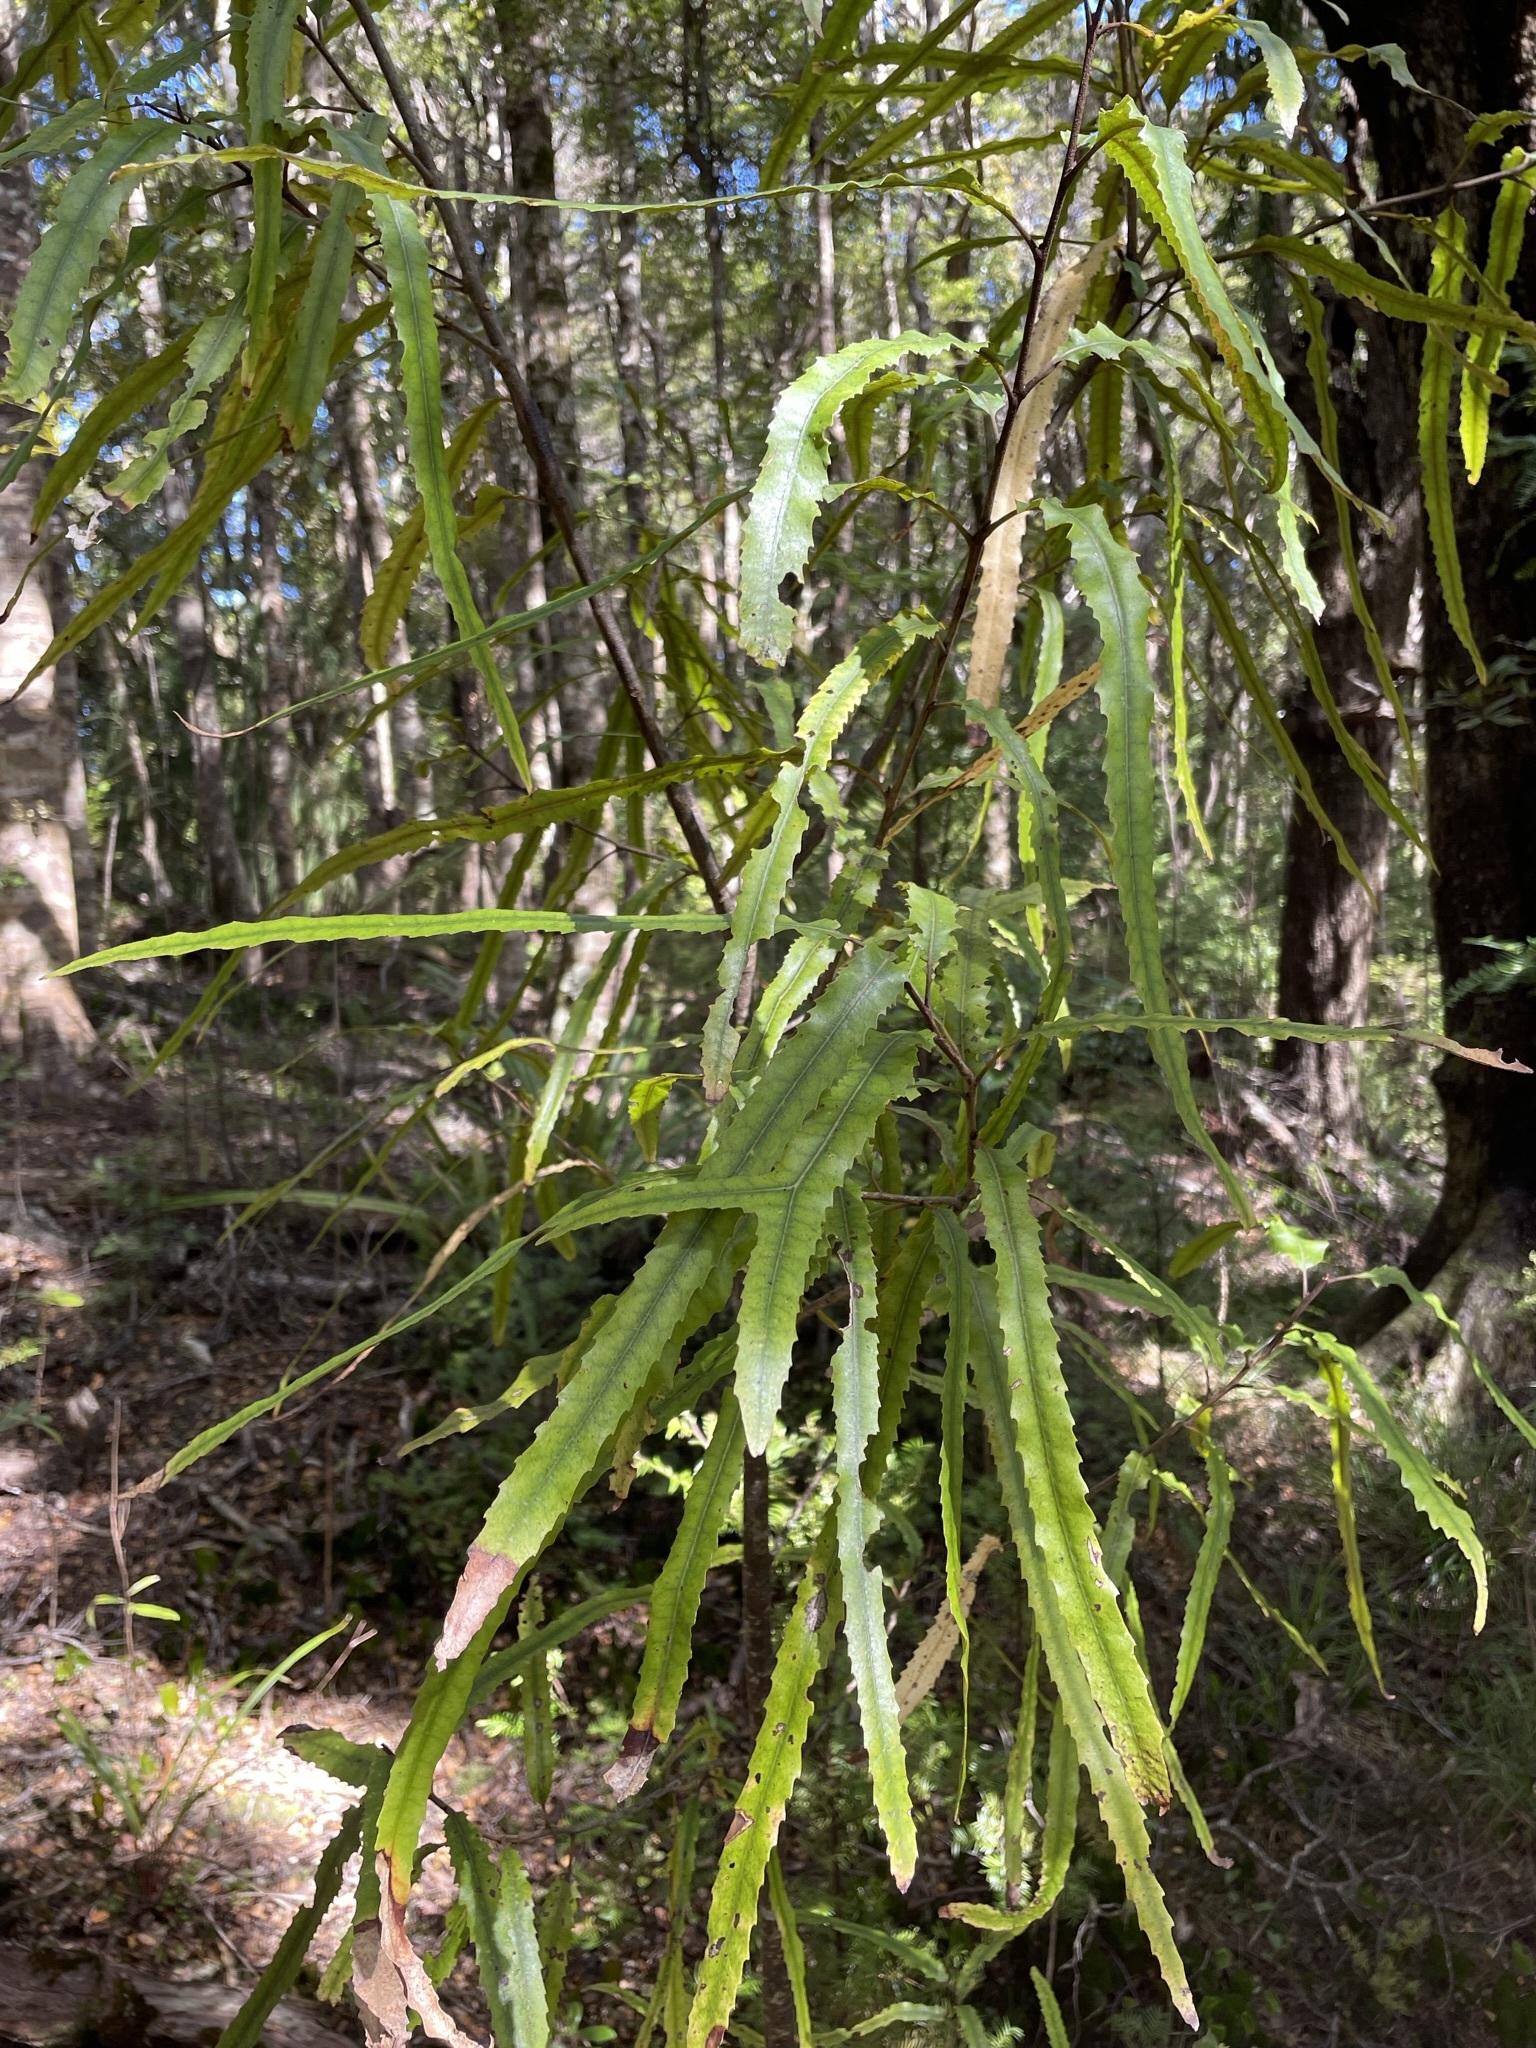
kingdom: Plantae
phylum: Tracheophyta
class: Magnoliopsida
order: Proteales
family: Proteaceae
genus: Knightia
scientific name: Knightia excelsa
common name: New zealand-honeysuckle
